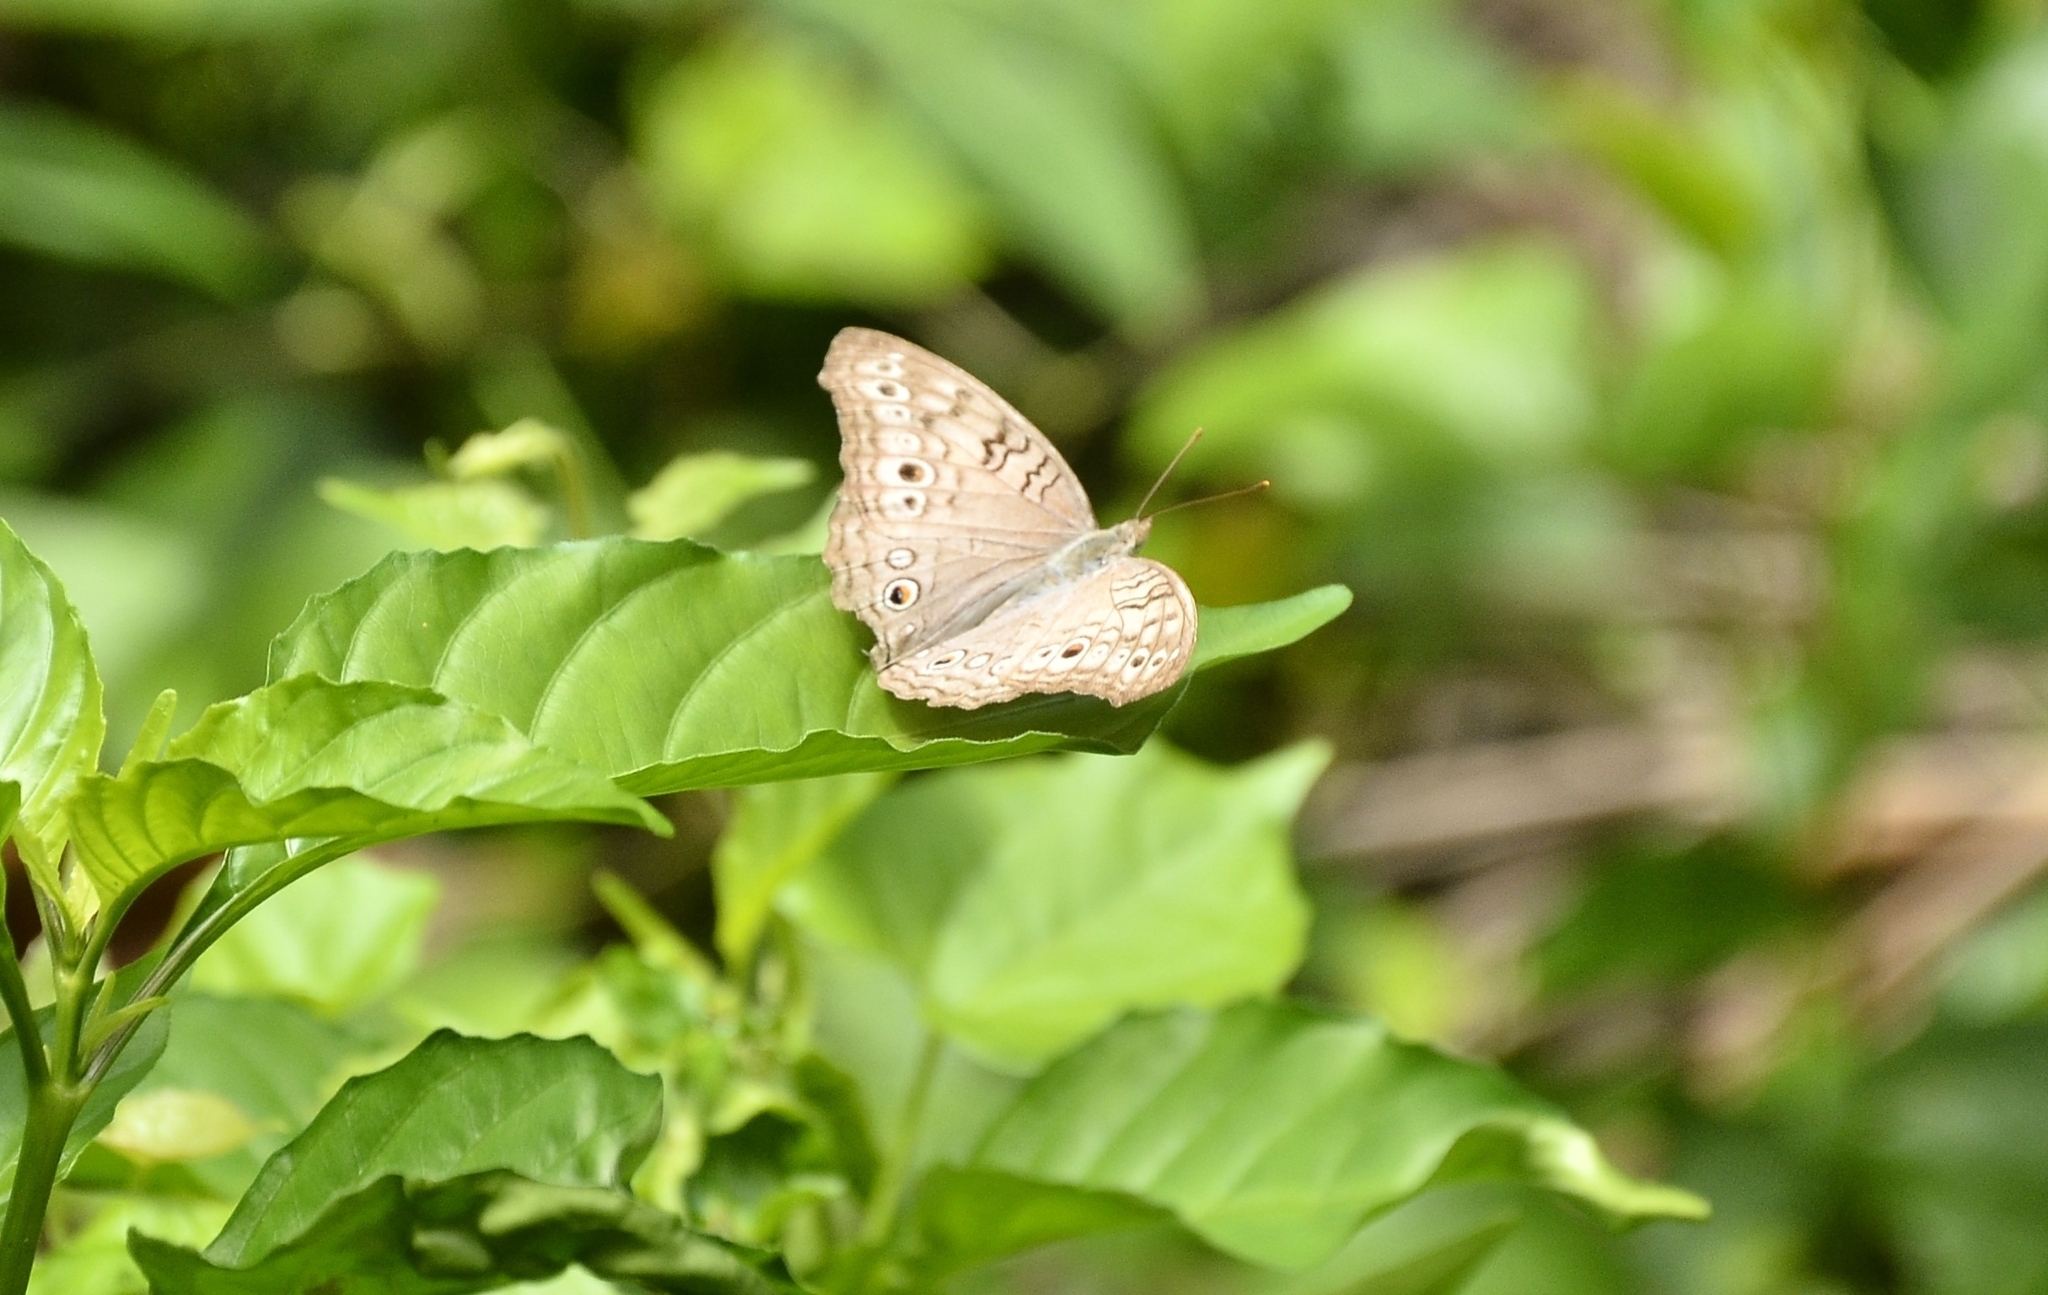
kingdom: Animalia
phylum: Arthropoda
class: Insecta
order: Lepidoptera
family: Nymphalidae
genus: Junonia
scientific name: Junonia atlites
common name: Grey pansy
